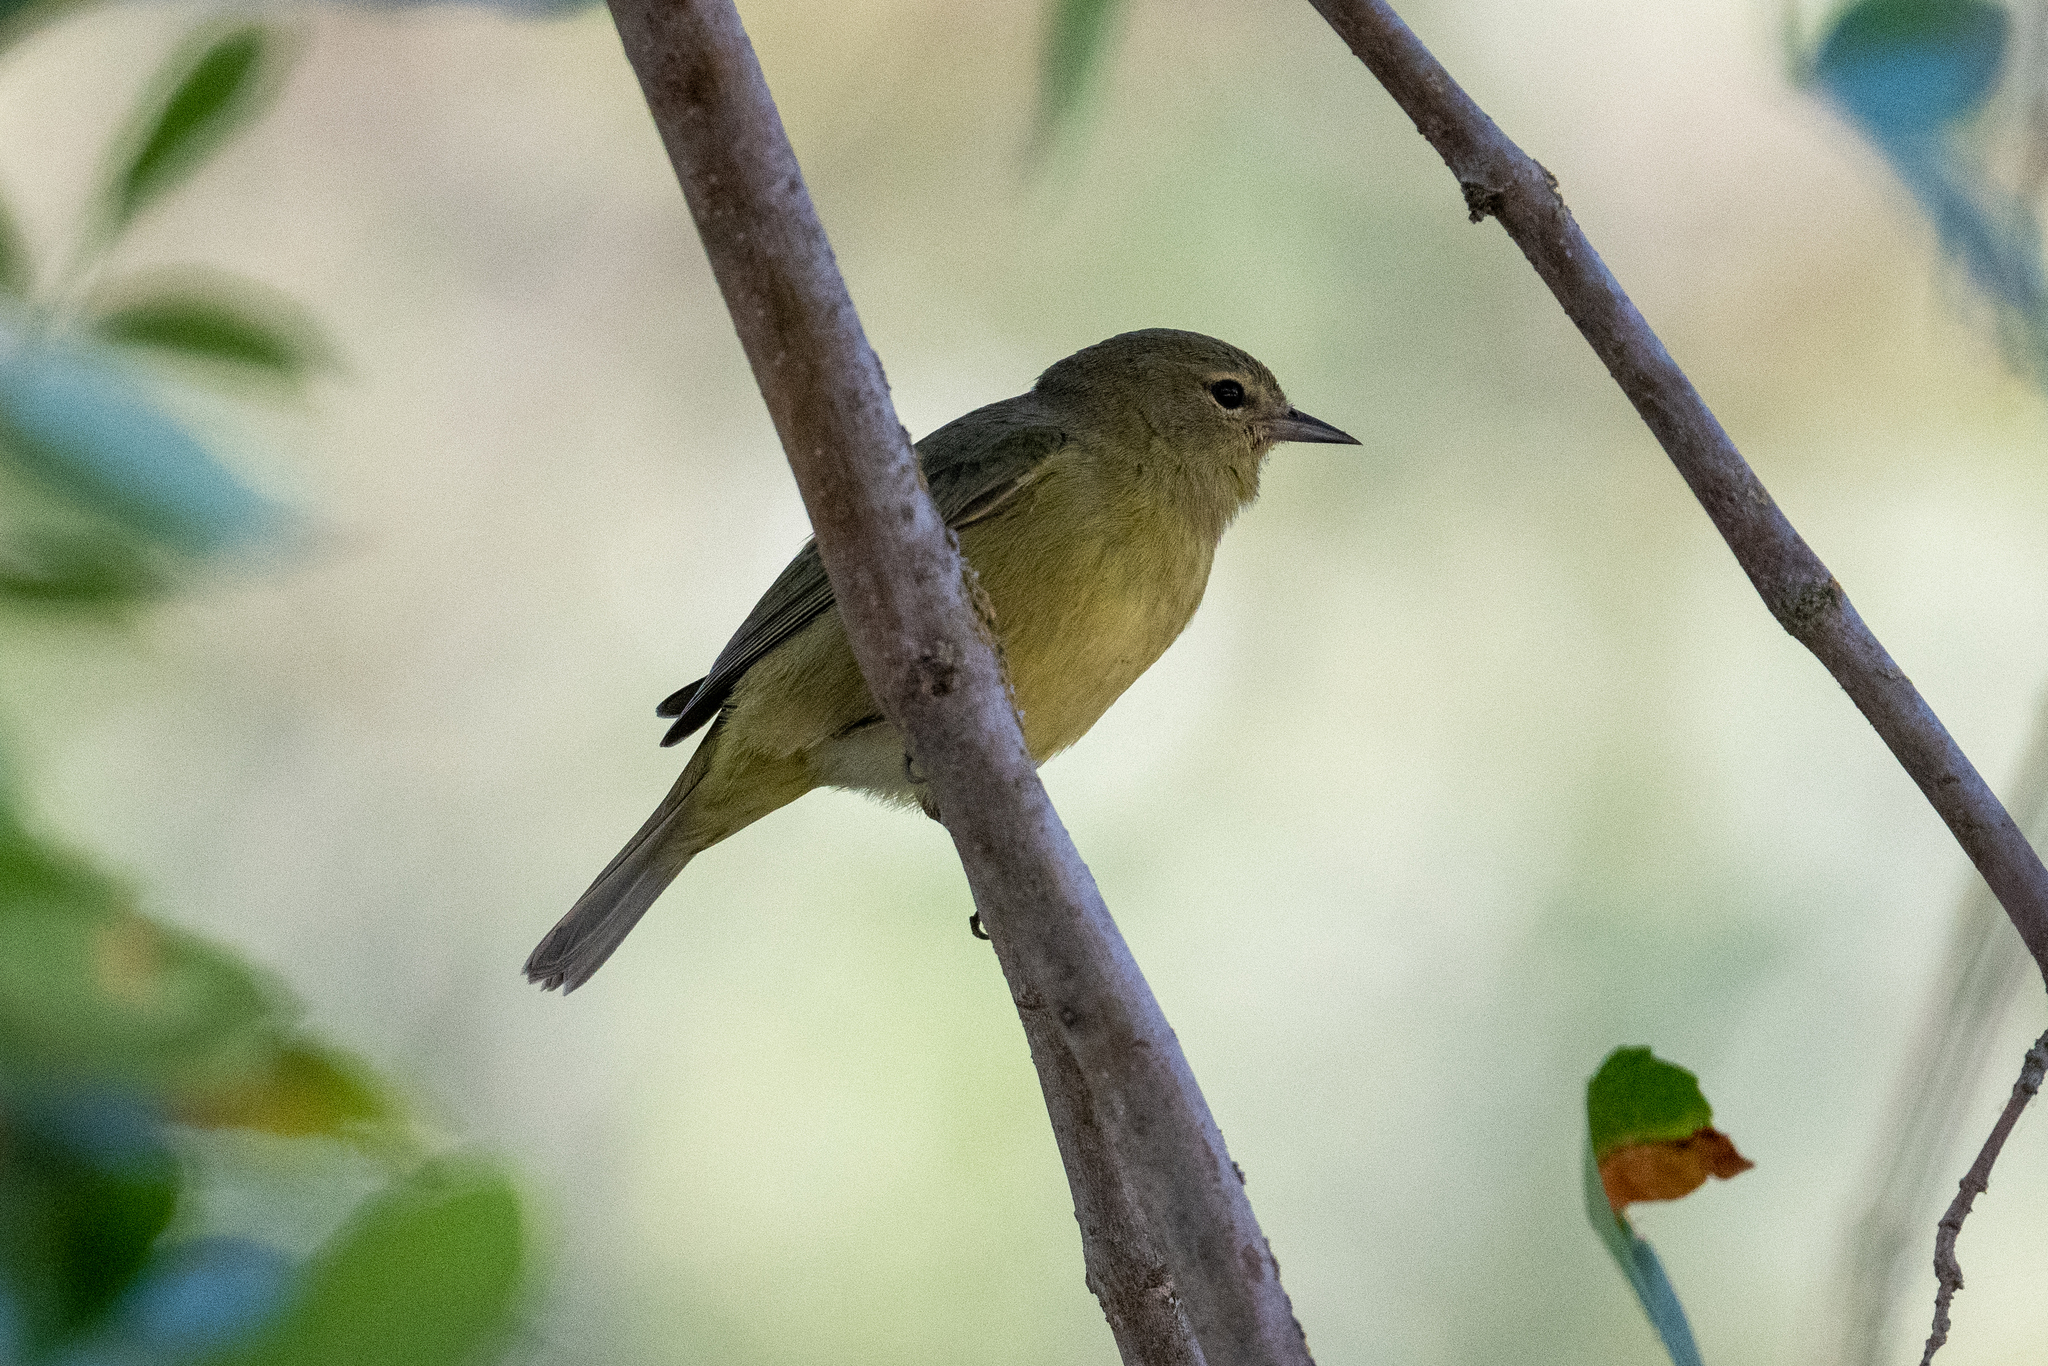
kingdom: Animalia
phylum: Chordata
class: Aves
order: Passeriformes
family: Parulidae
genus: Leiothlypis
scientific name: Leiothlypis celata
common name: Orange-crowned warbler
